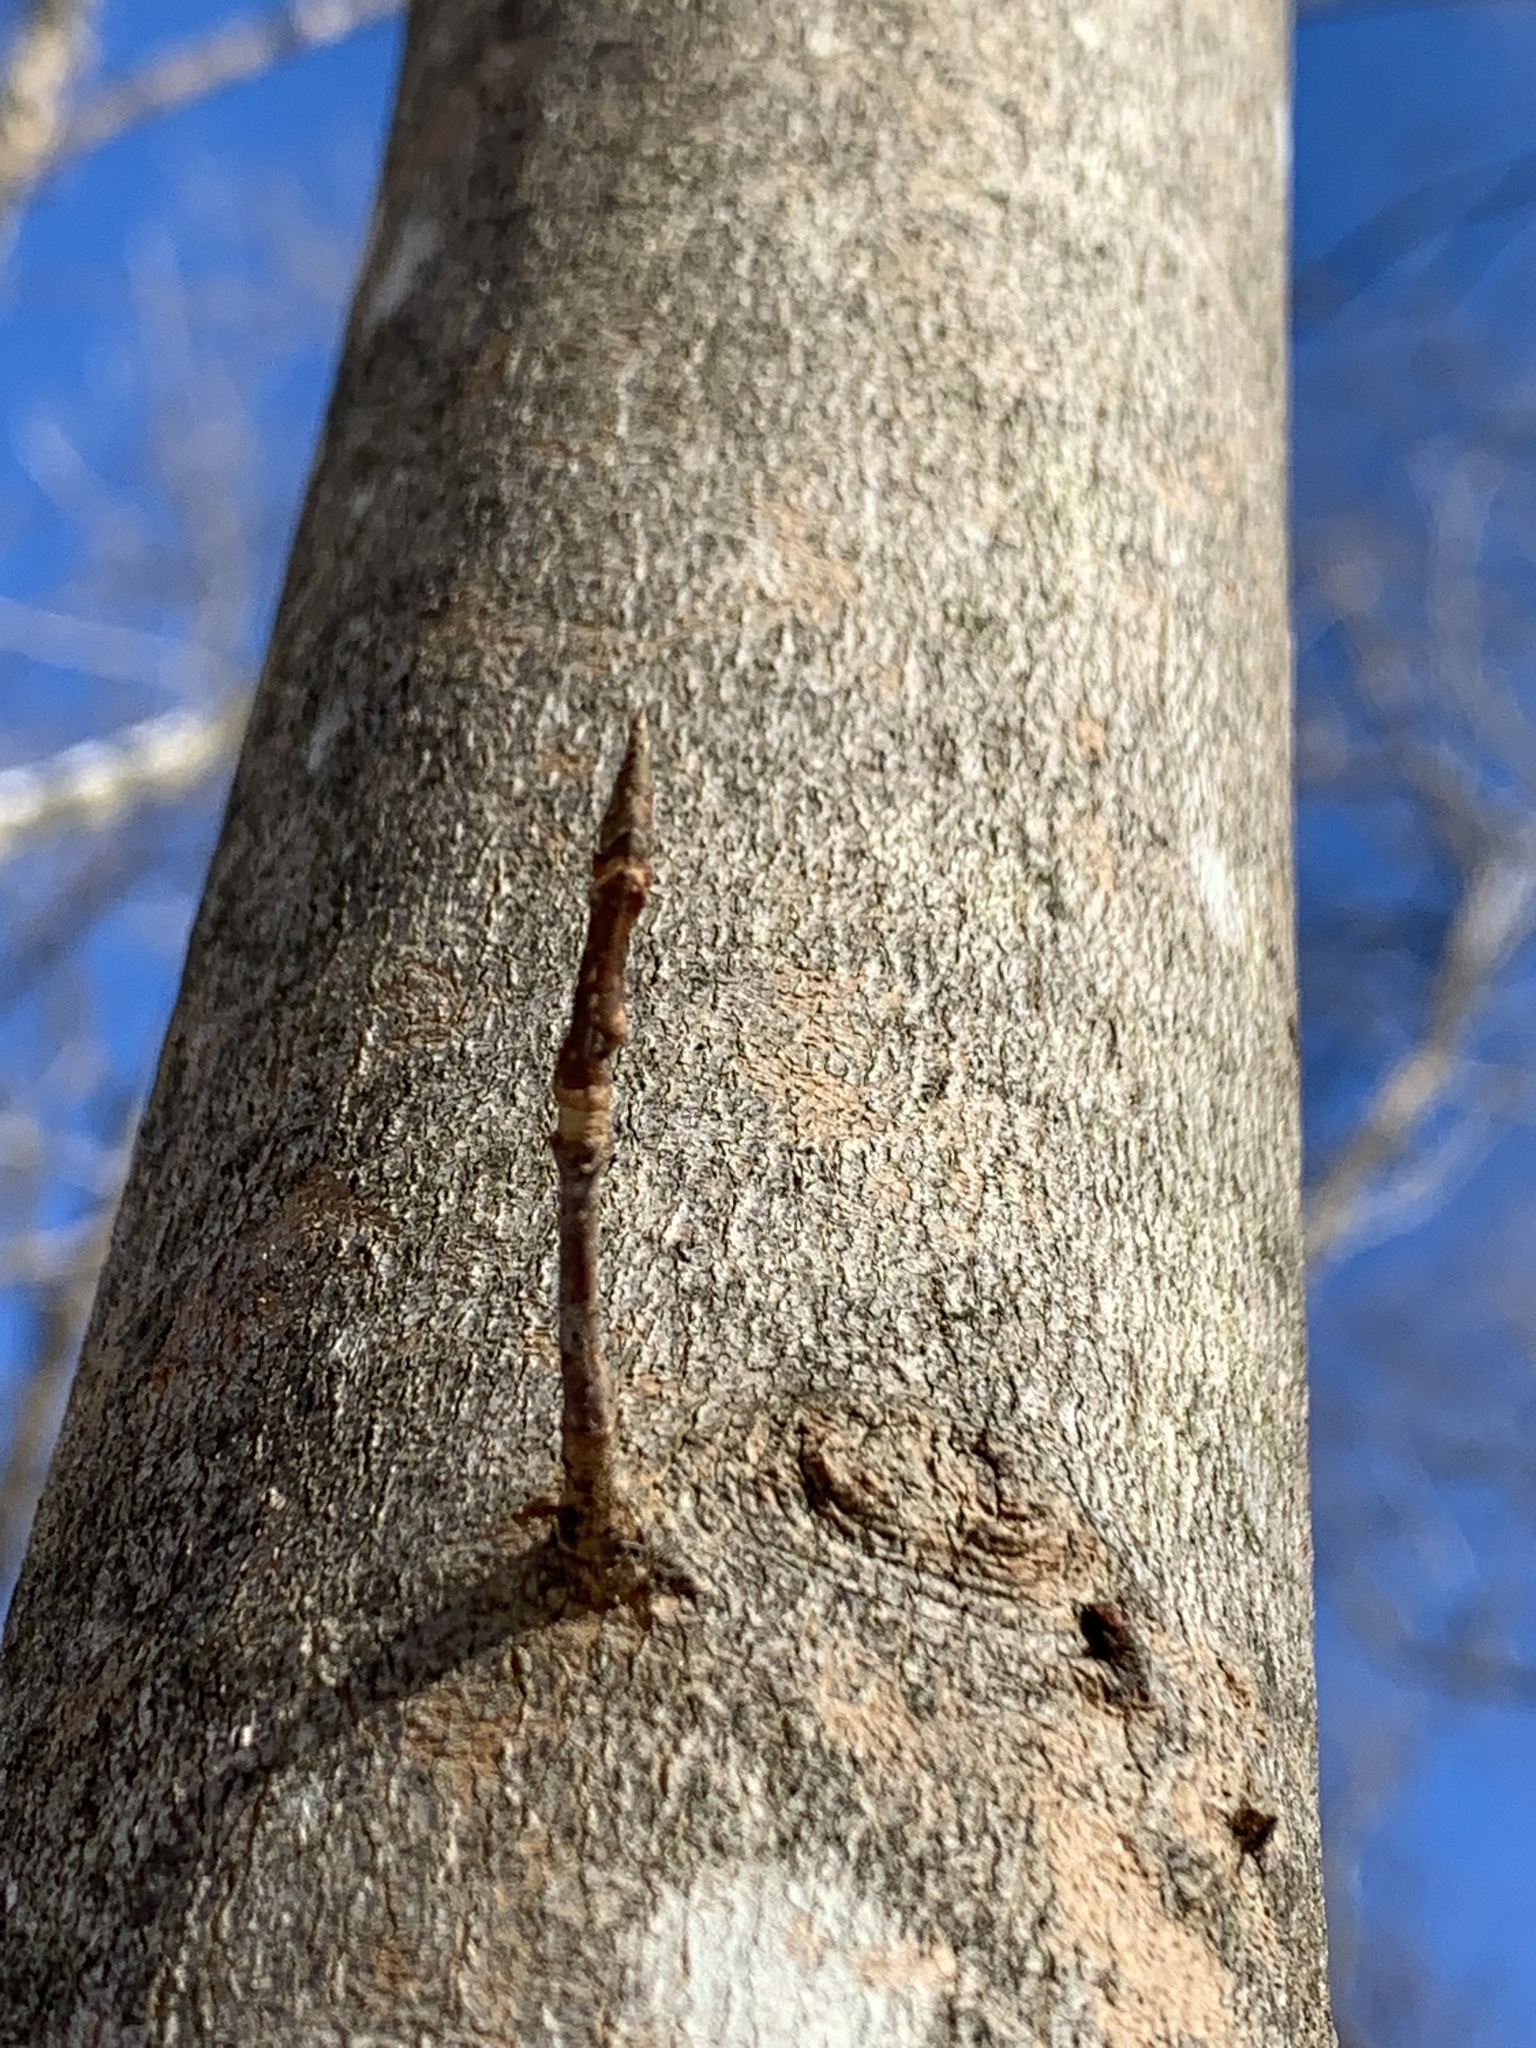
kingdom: Plantae
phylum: Tracheophyta
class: Magnoliopsida
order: Sapindales
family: Sapindaceae
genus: Acer
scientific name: Acer saccharum
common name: Sugar maple
